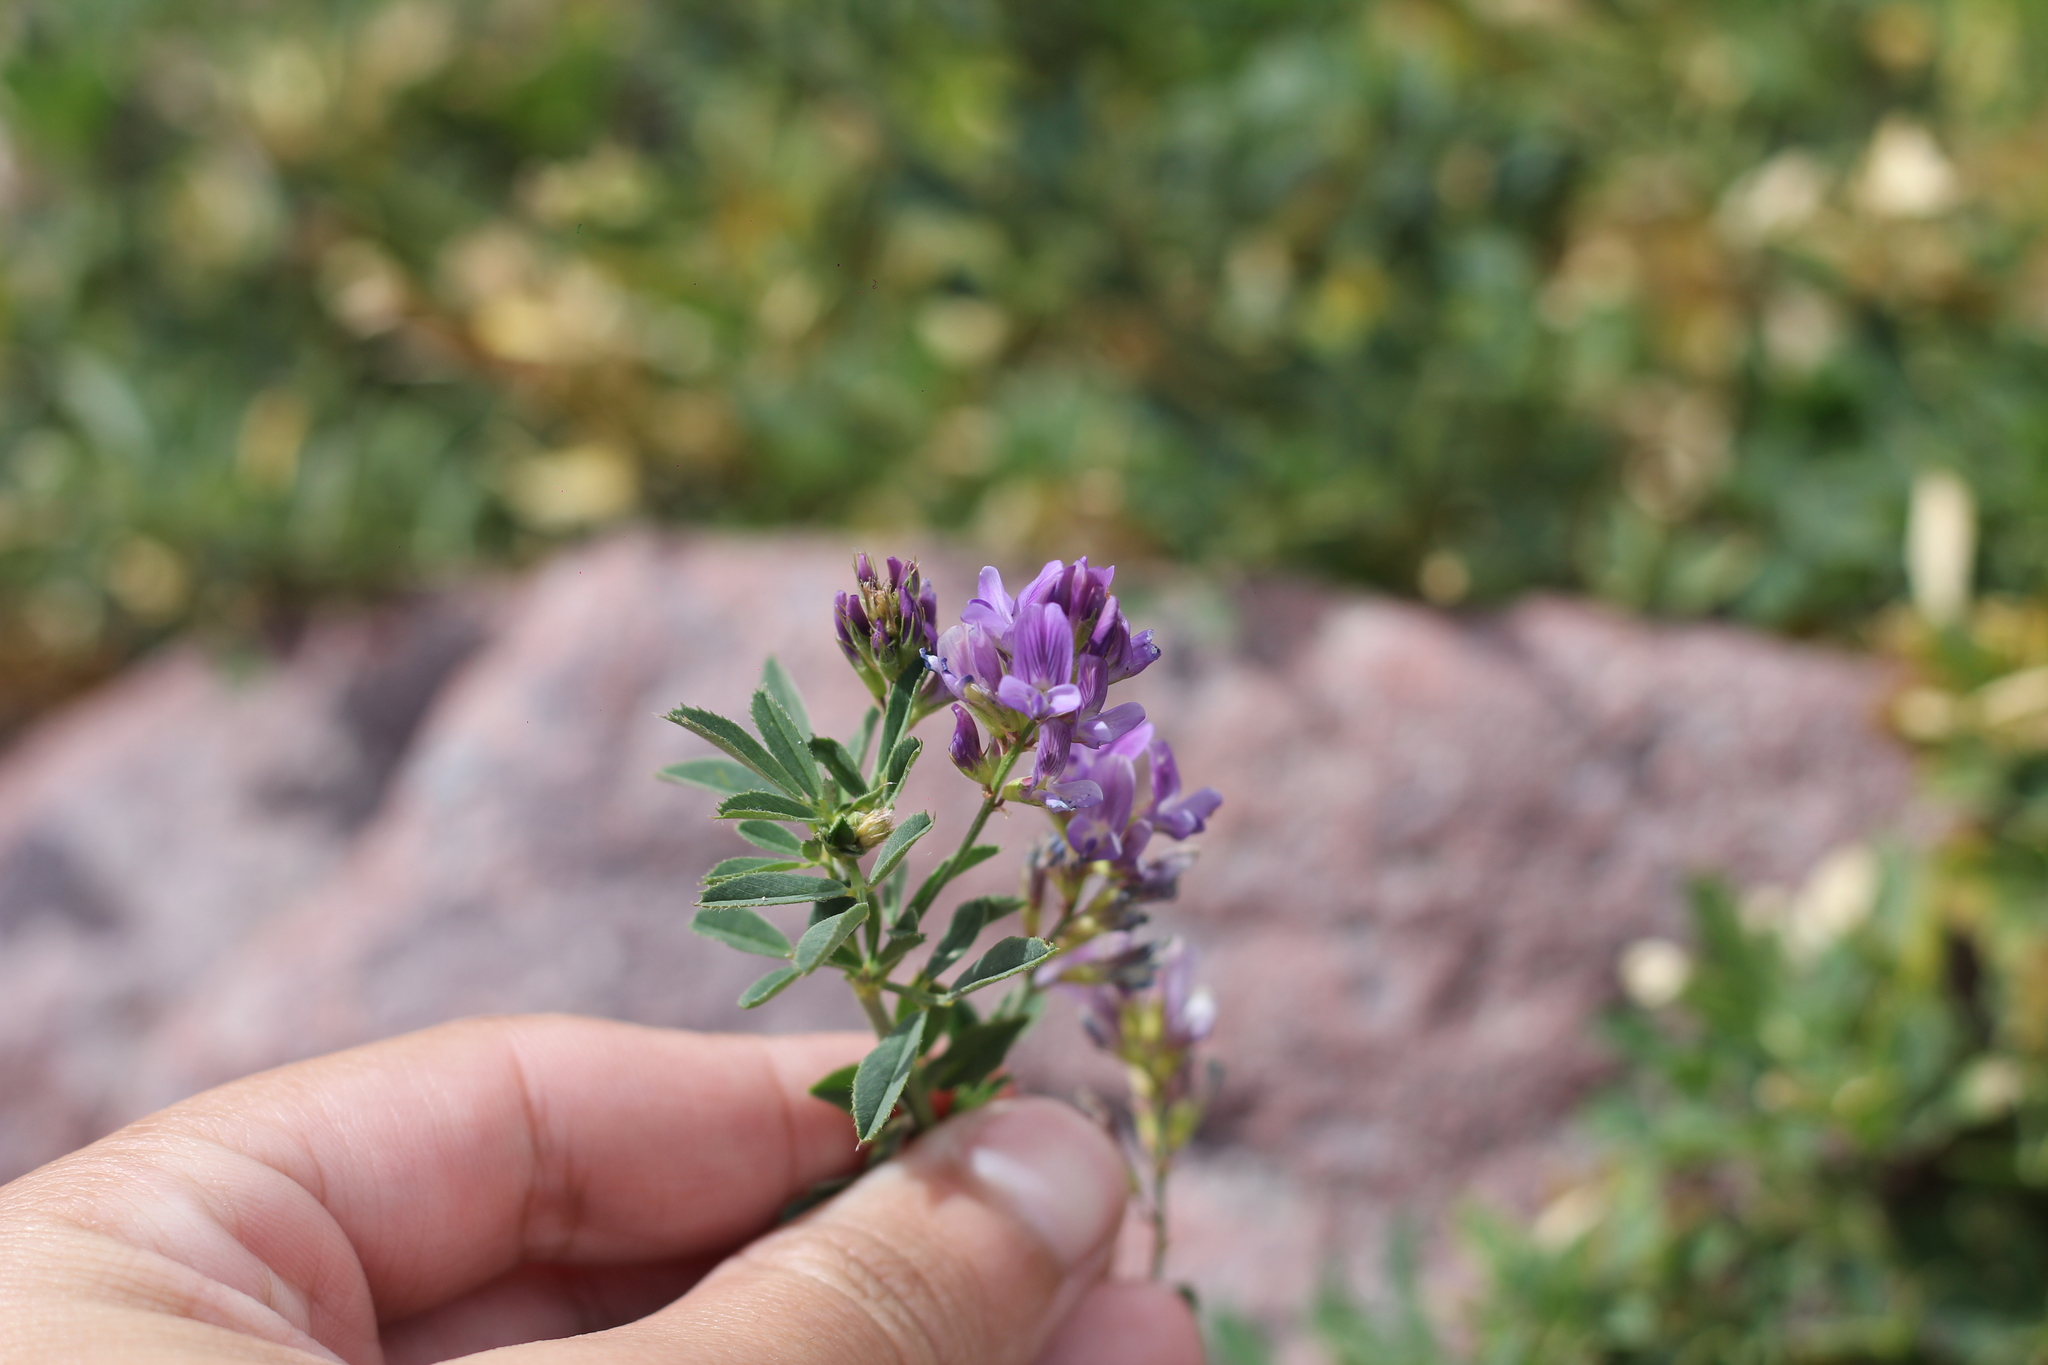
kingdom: Plantae
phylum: Tracheophyta
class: Magnoliopsida
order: Fabales
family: Fabaceae
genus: Medicago
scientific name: Medicago sativa
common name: Alfalfa
